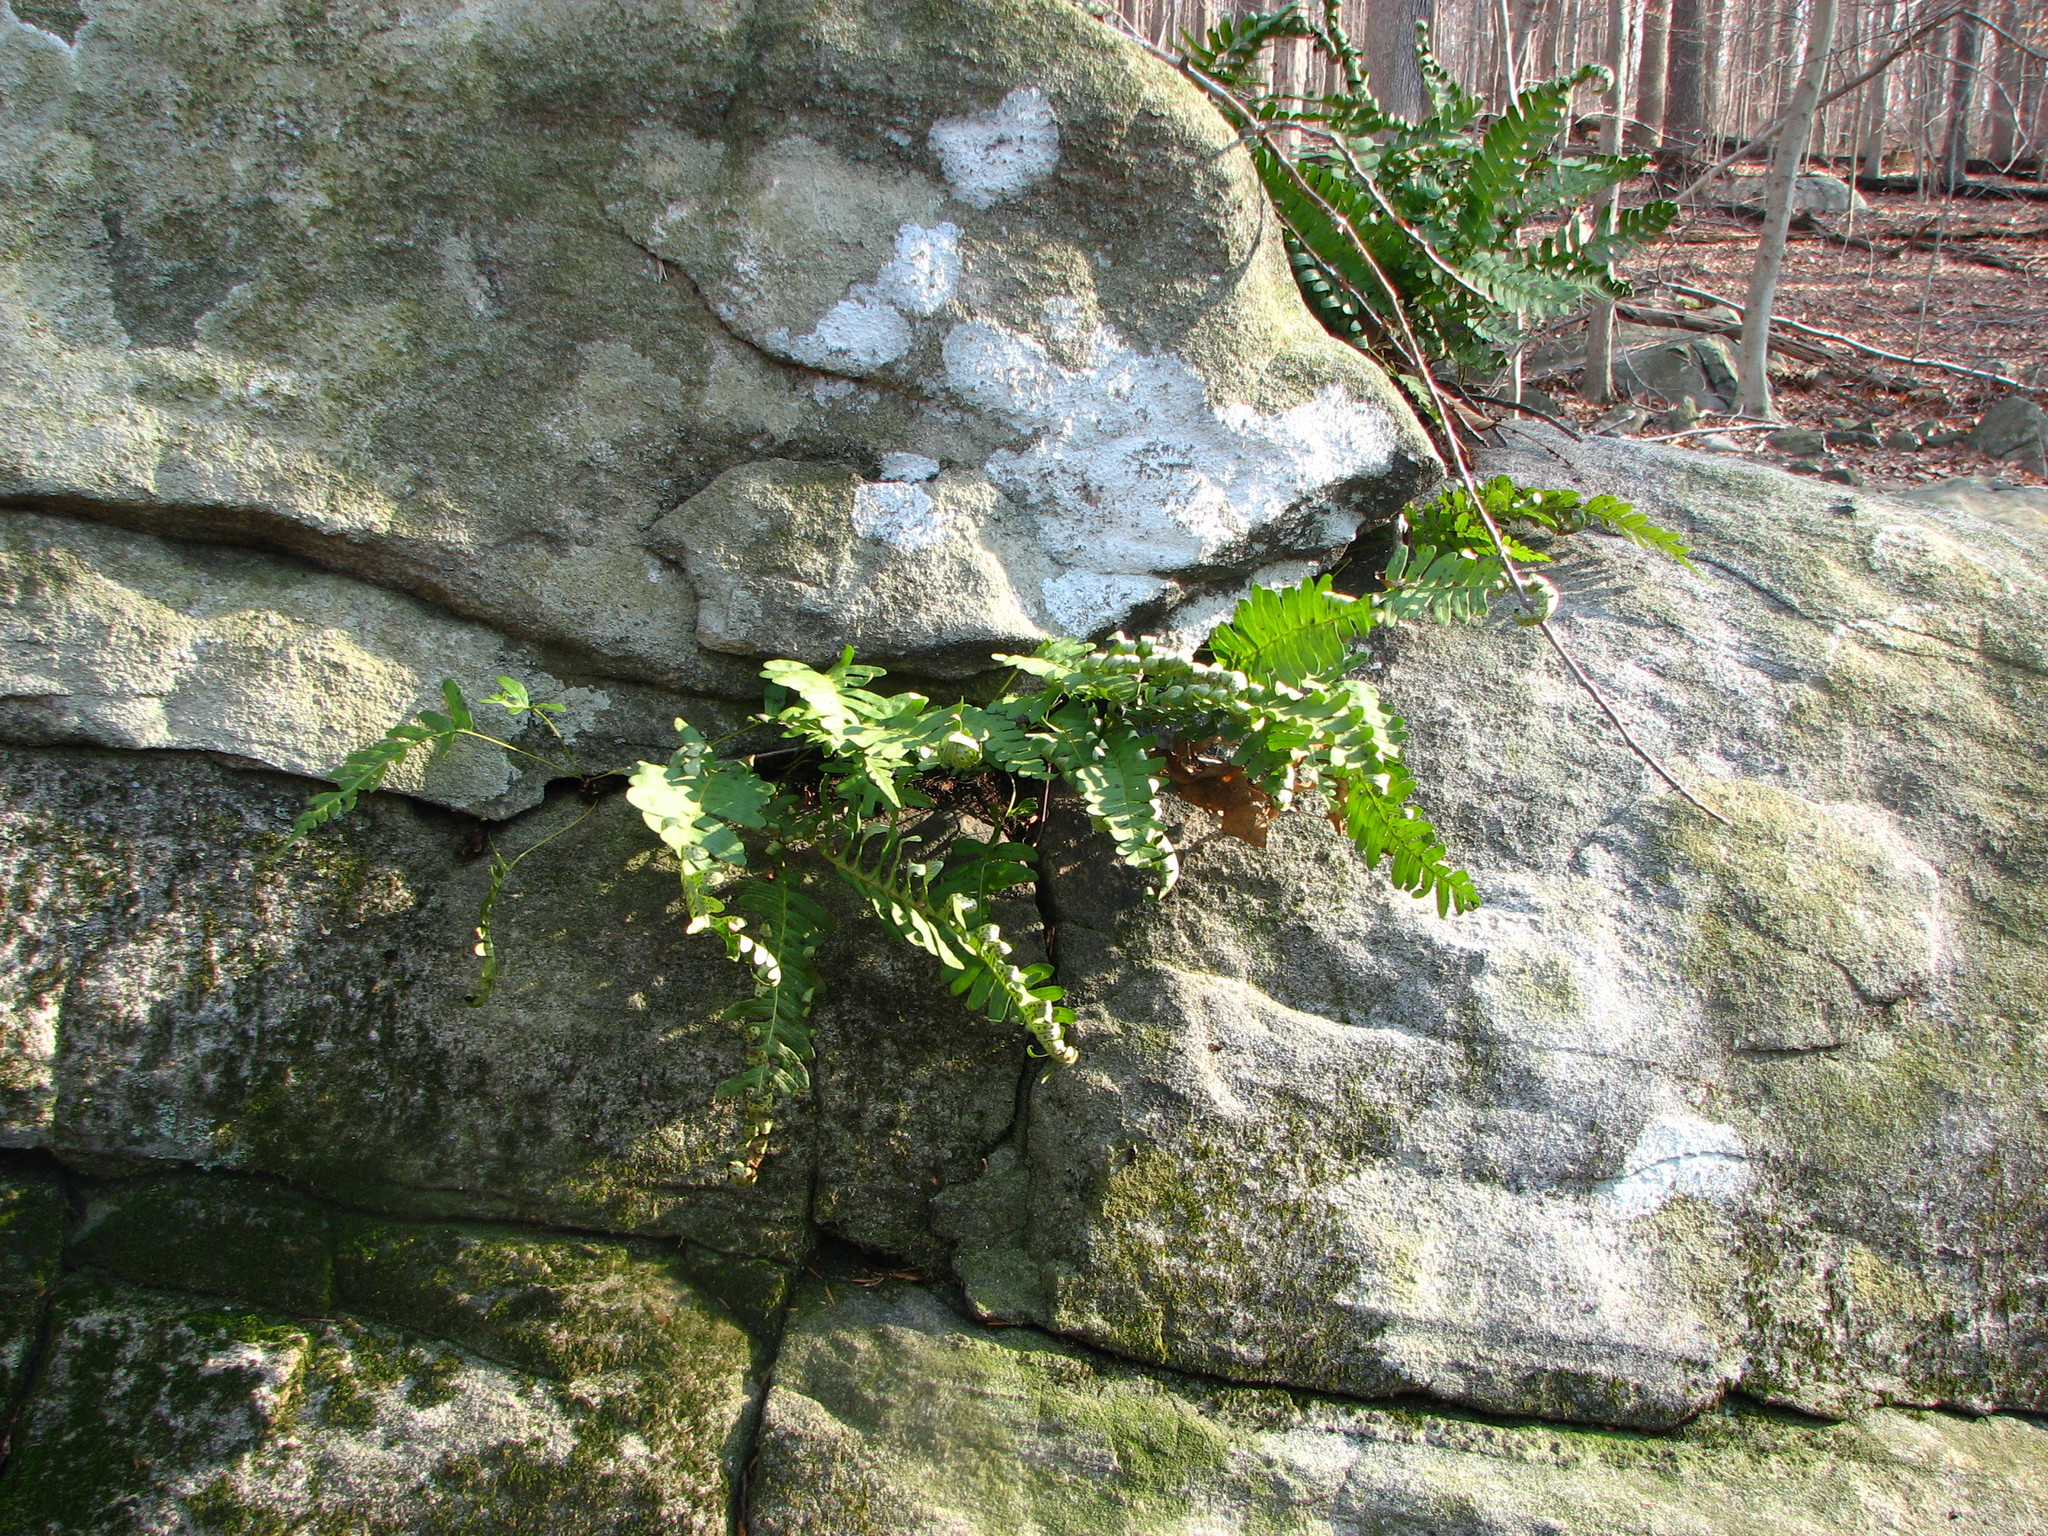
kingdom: Plantae
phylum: Tracheophyta
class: Polypodiopsida
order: Polypodiales
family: Polypodiaceae
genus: Polypodium
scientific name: Polypodium virginianum
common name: American wall fern
